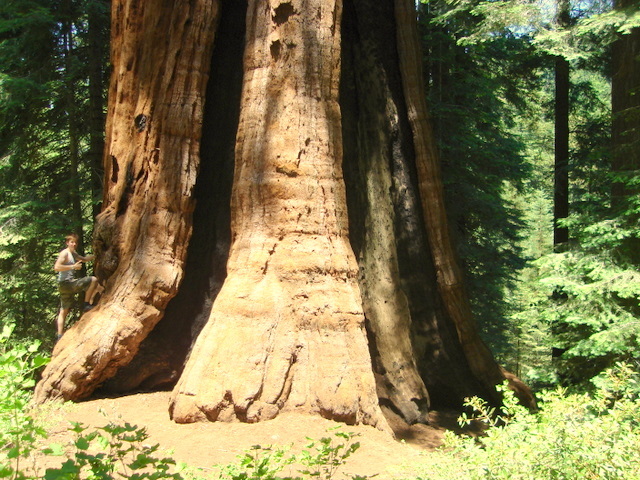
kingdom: Plantae
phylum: Tracheophyta
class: Pinopsida
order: Pinales
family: Cupressaceae
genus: Sequoiadendron
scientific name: Sequoiadendron giganteum
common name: Wellingtonia
